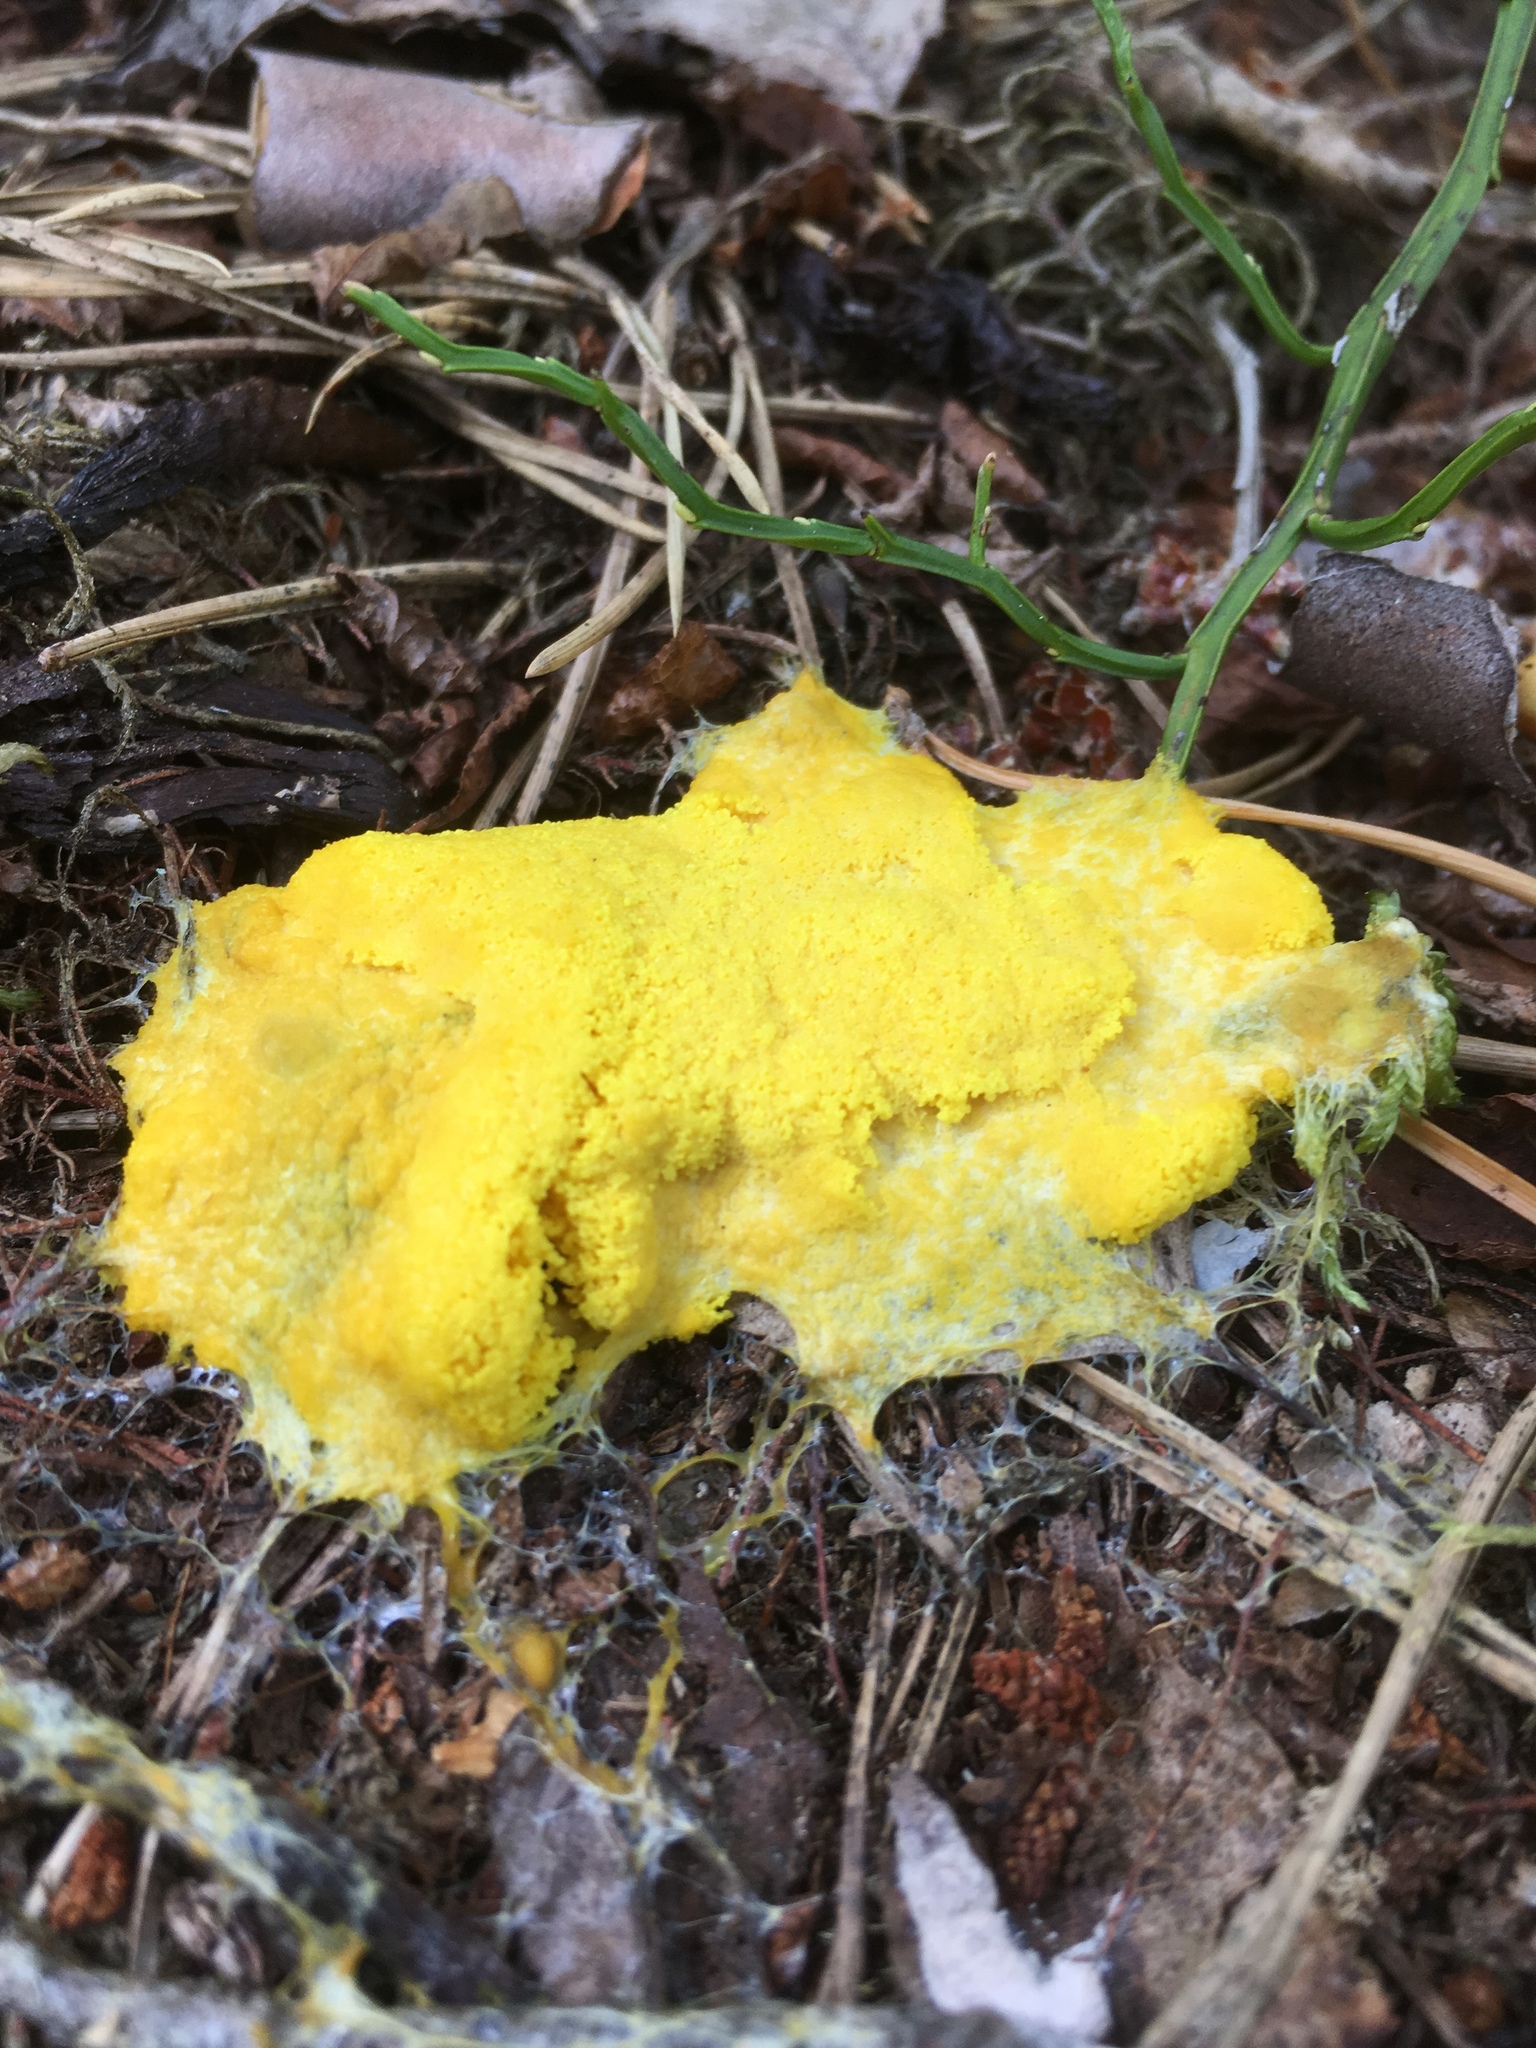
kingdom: Protozoa
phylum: Mycetozoa
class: Myxomycetes
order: Physarales
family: Physaraceae
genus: Fuligo
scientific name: Fuligo septica
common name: Dog vomit slime mold
